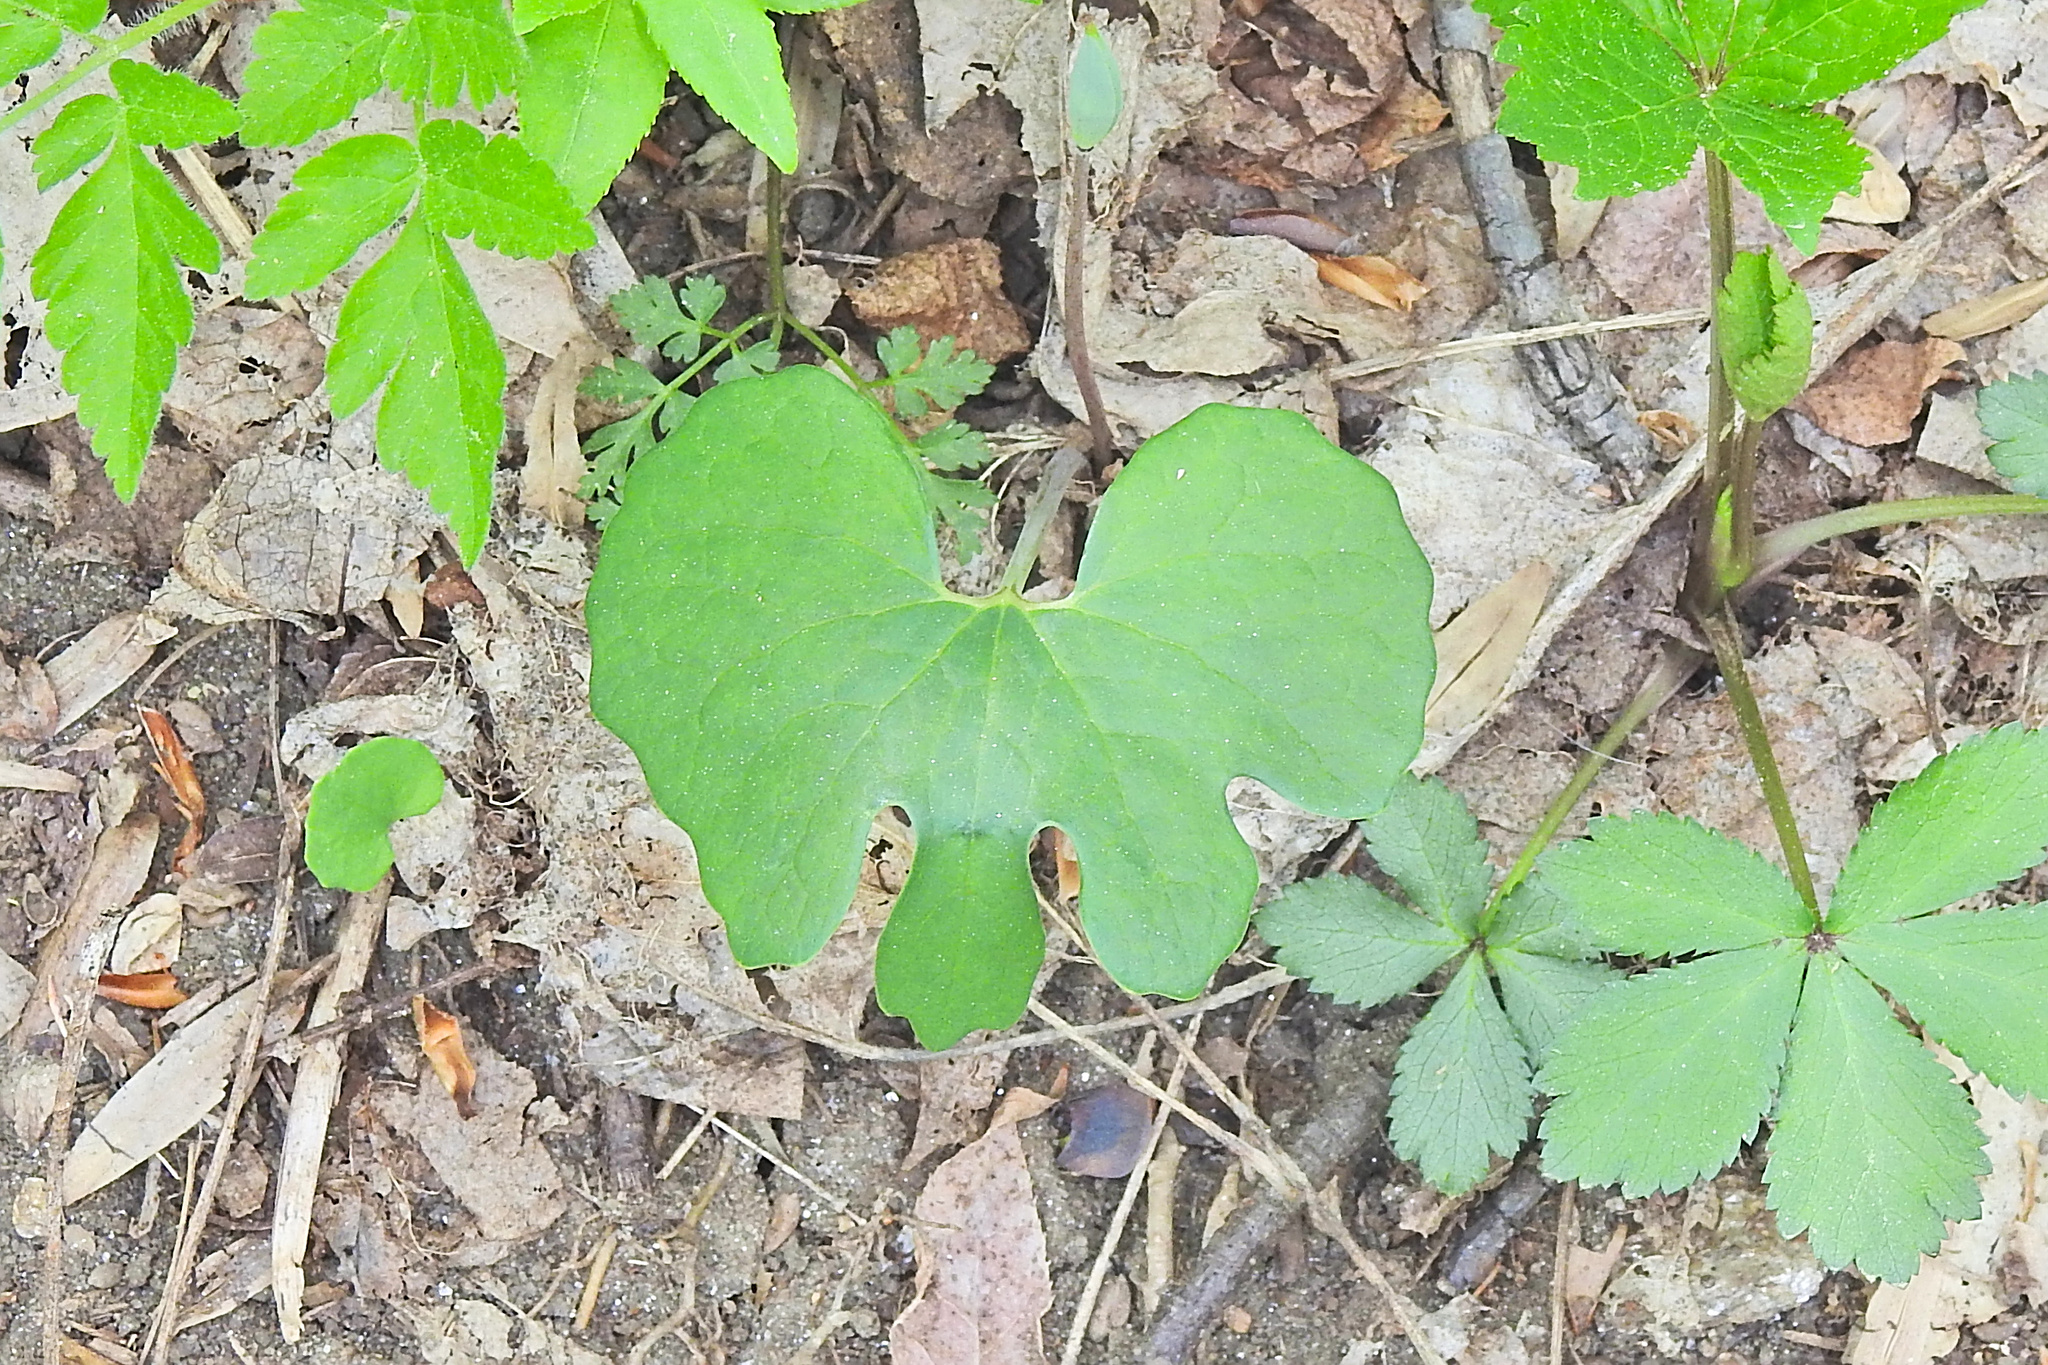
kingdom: Plantae
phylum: Tracheophyta
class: Magnoliopsida
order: Ranunculales
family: Papaveraceae
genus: Sanguinaria
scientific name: Sanguinaria canadensis
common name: Bloodroot
